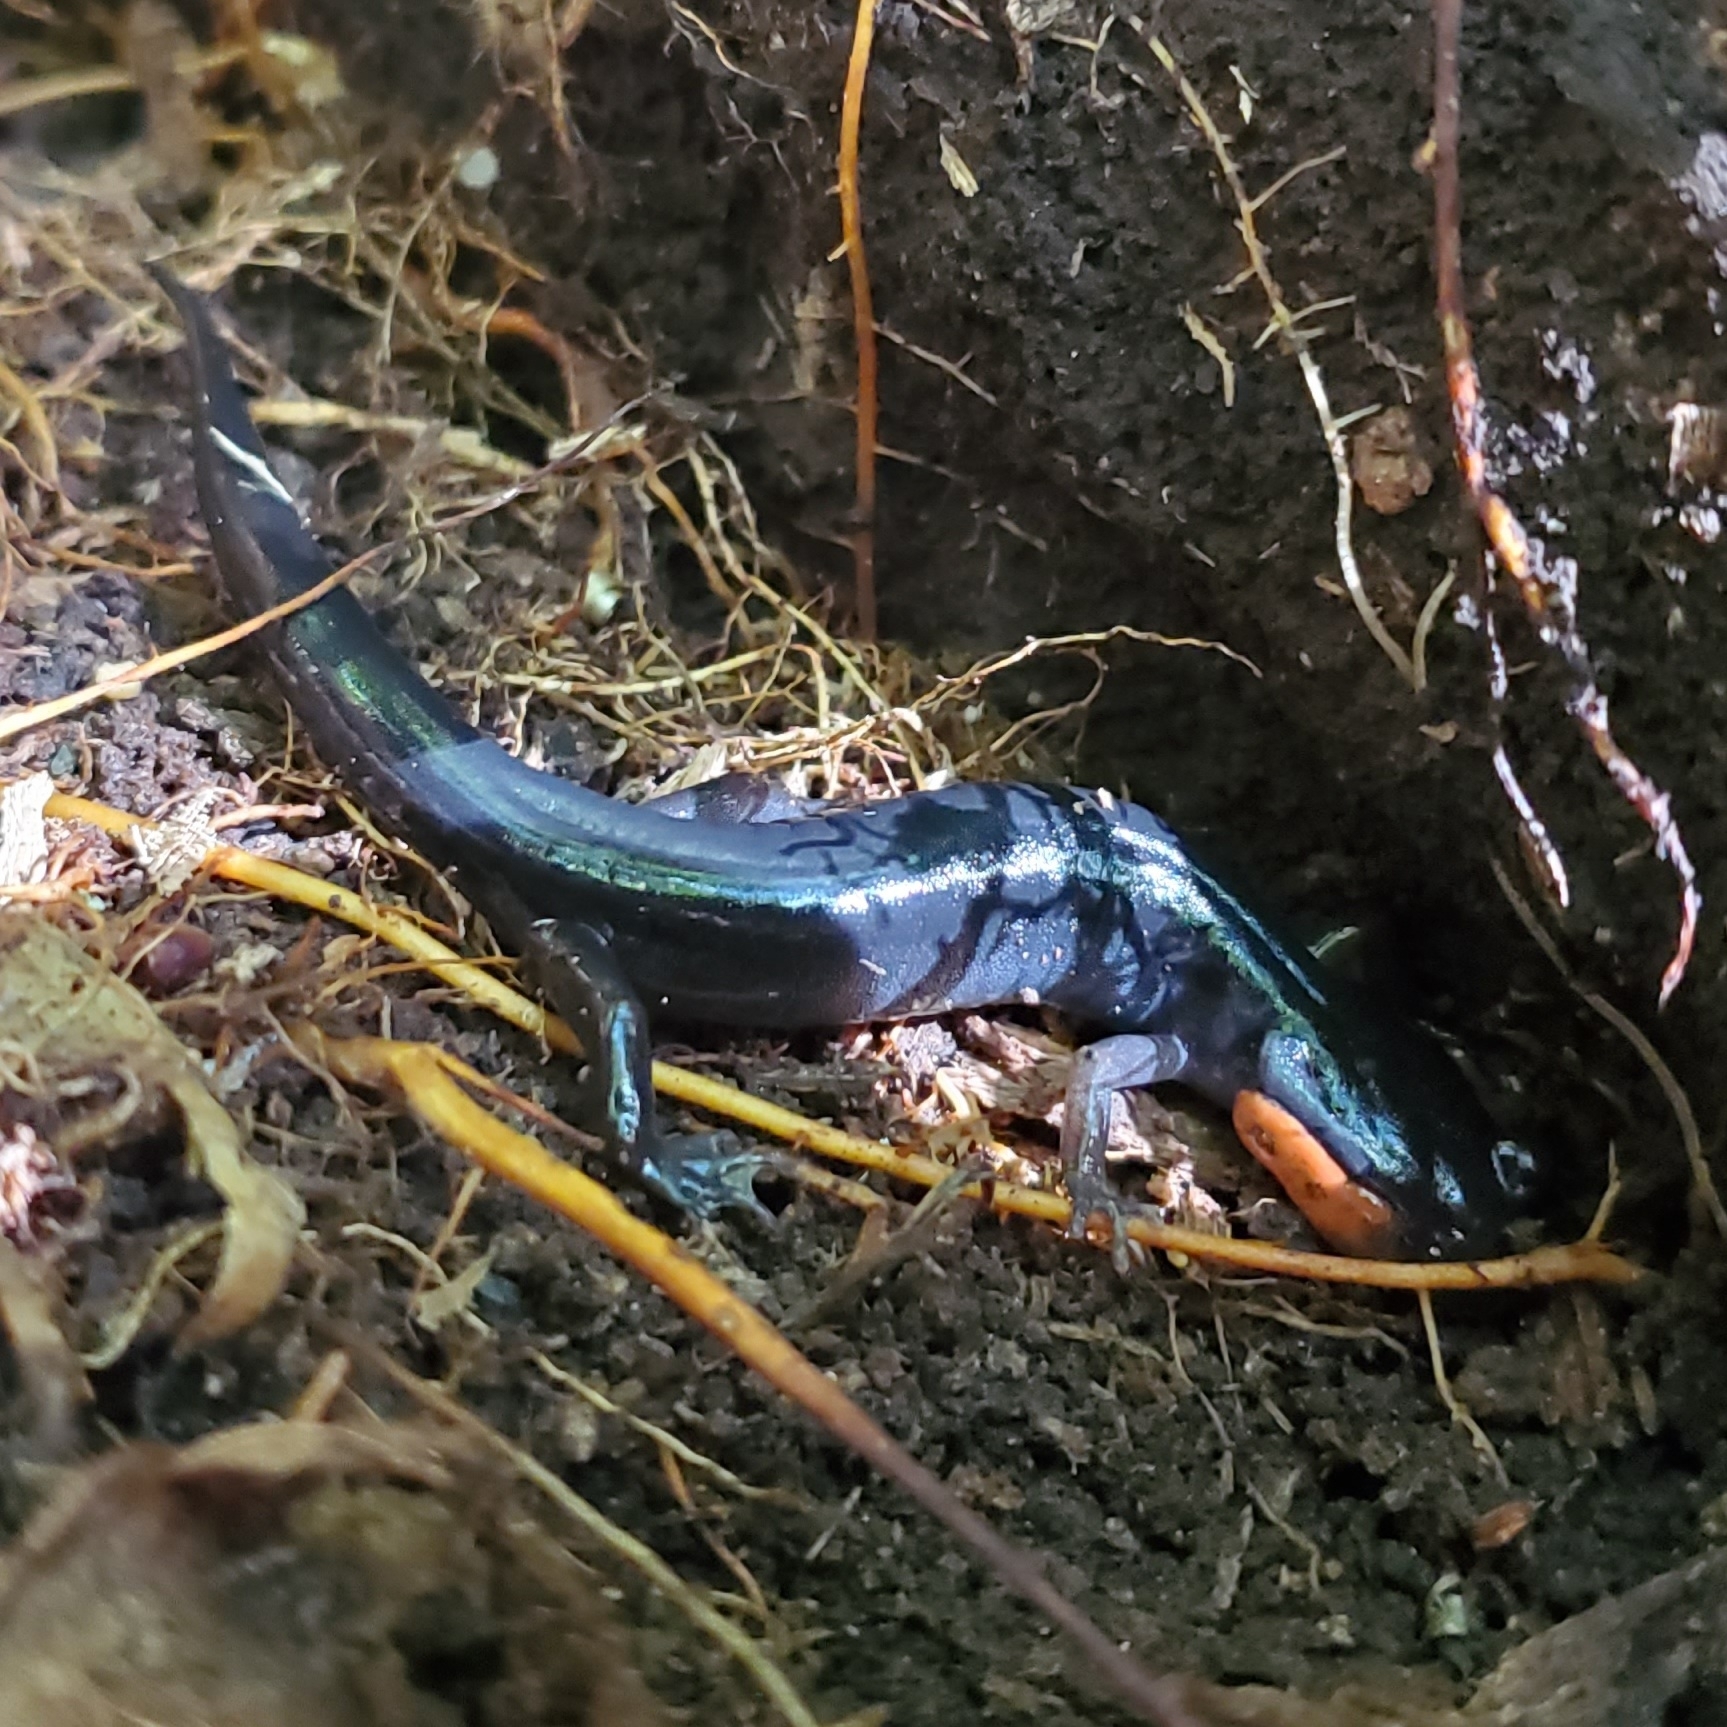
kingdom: Animalia
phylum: Chordata
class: Amphibia
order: Caudata
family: Plethodontidae
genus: Plethodon
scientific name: Plethodon jordani
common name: Red-cheeked salamander
